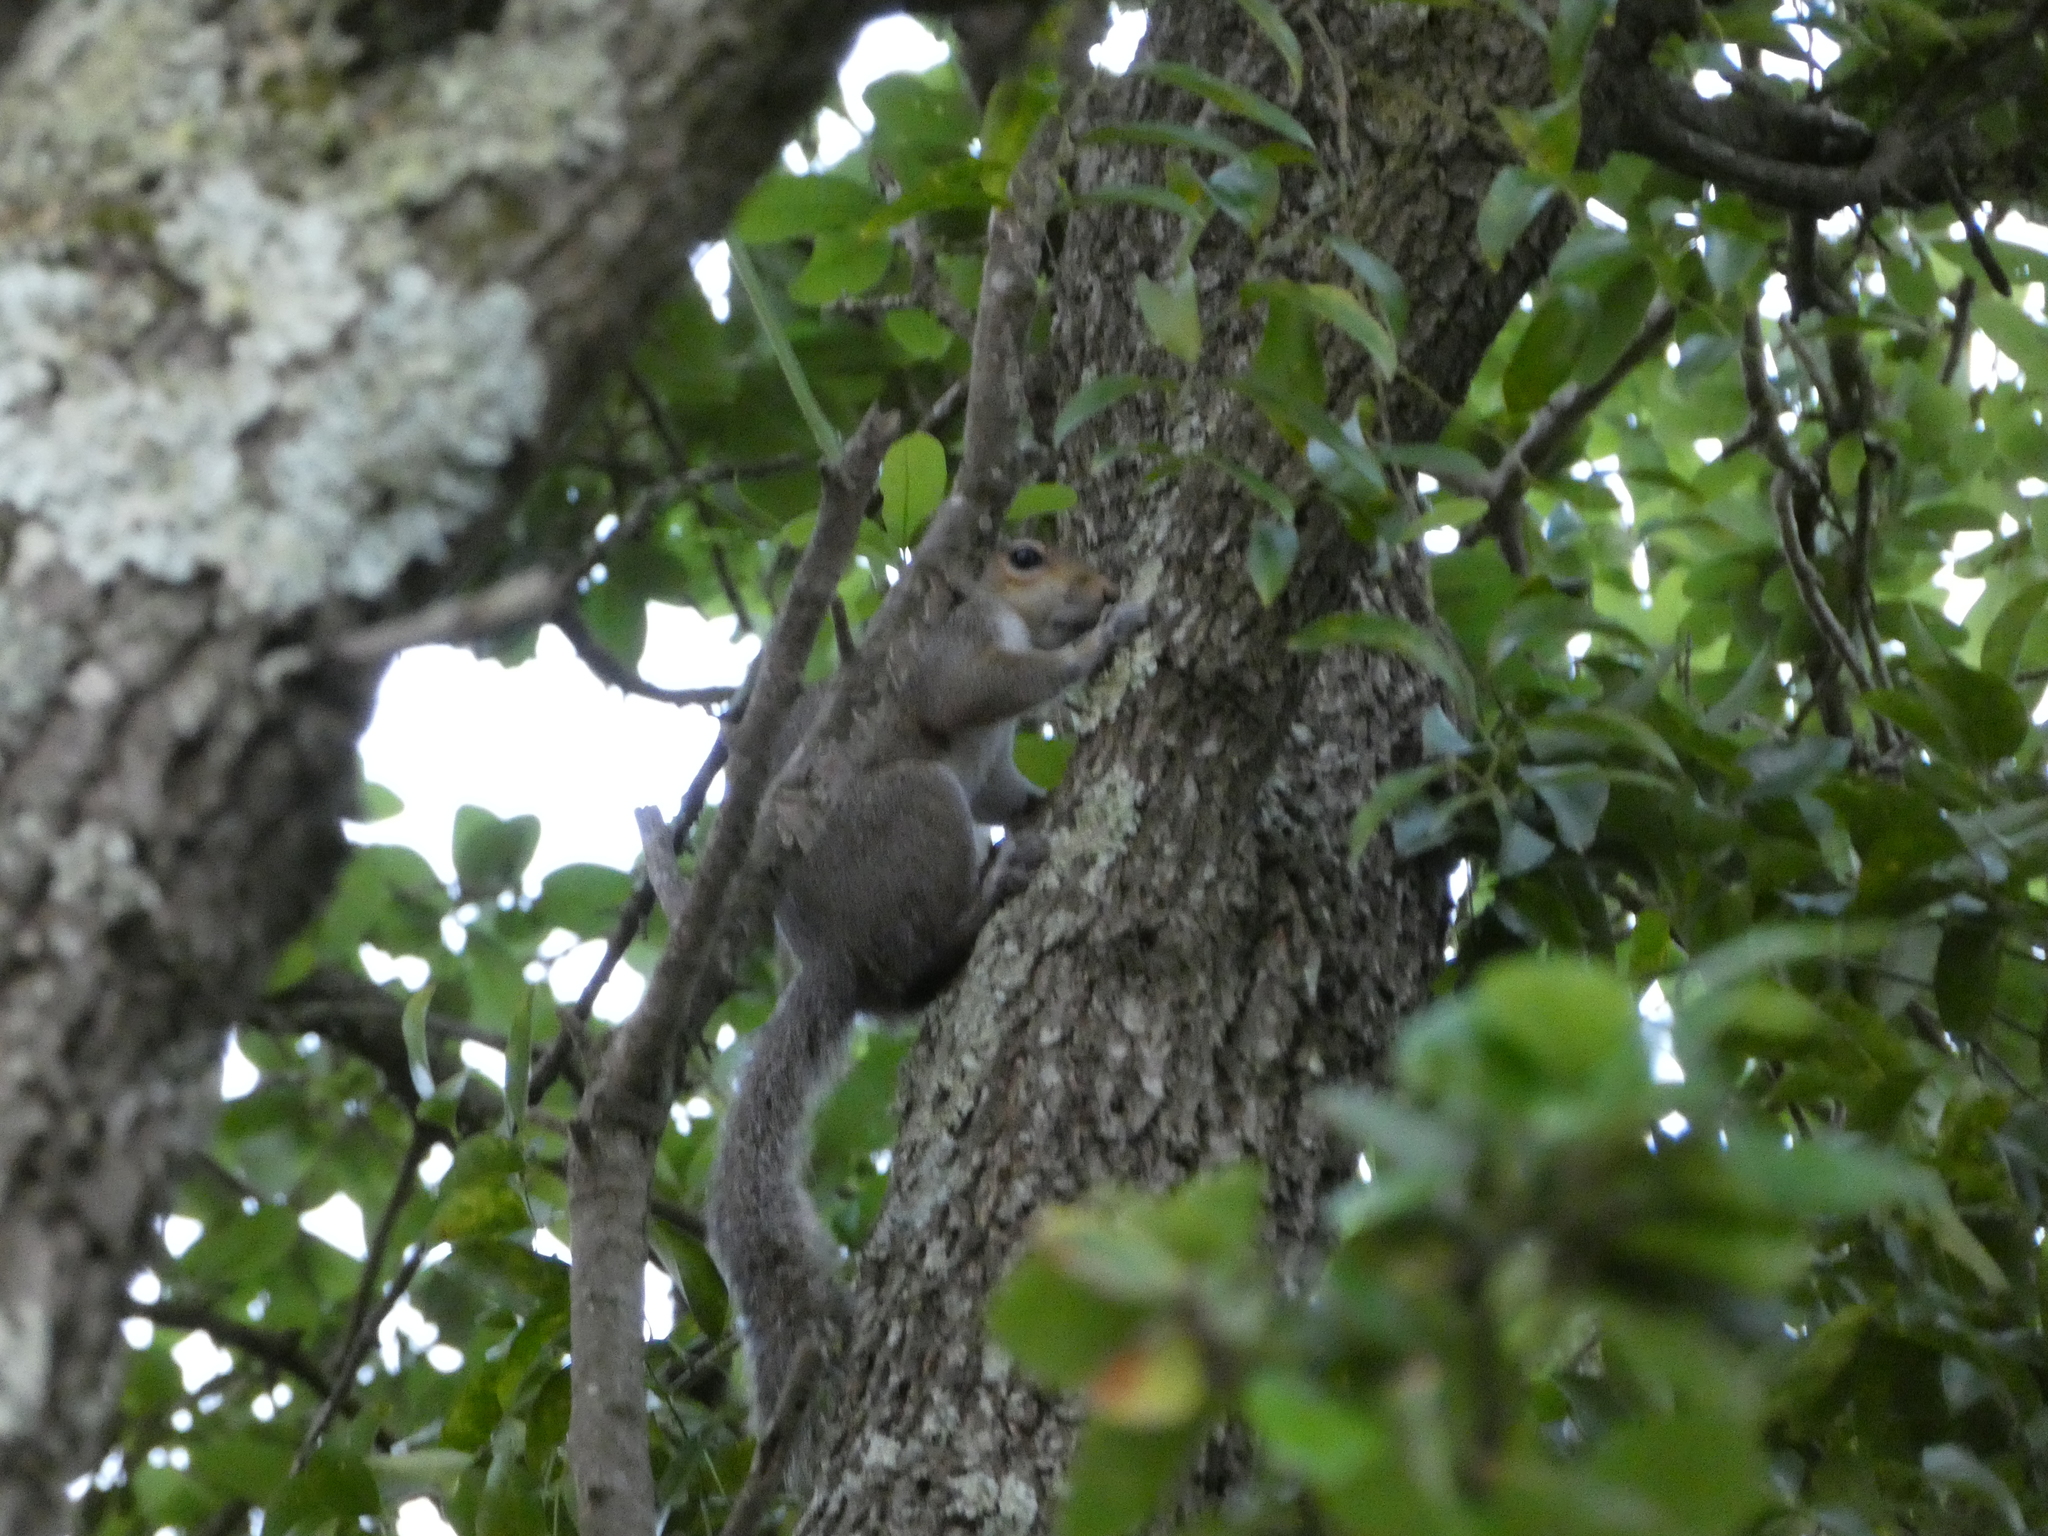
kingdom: Animalia
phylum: Chordata
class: Mammalia
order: Rodentia
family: Sciuridae
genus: Sciurus
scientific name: Sciurus carolinensis
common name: Eastern gray squirrel
